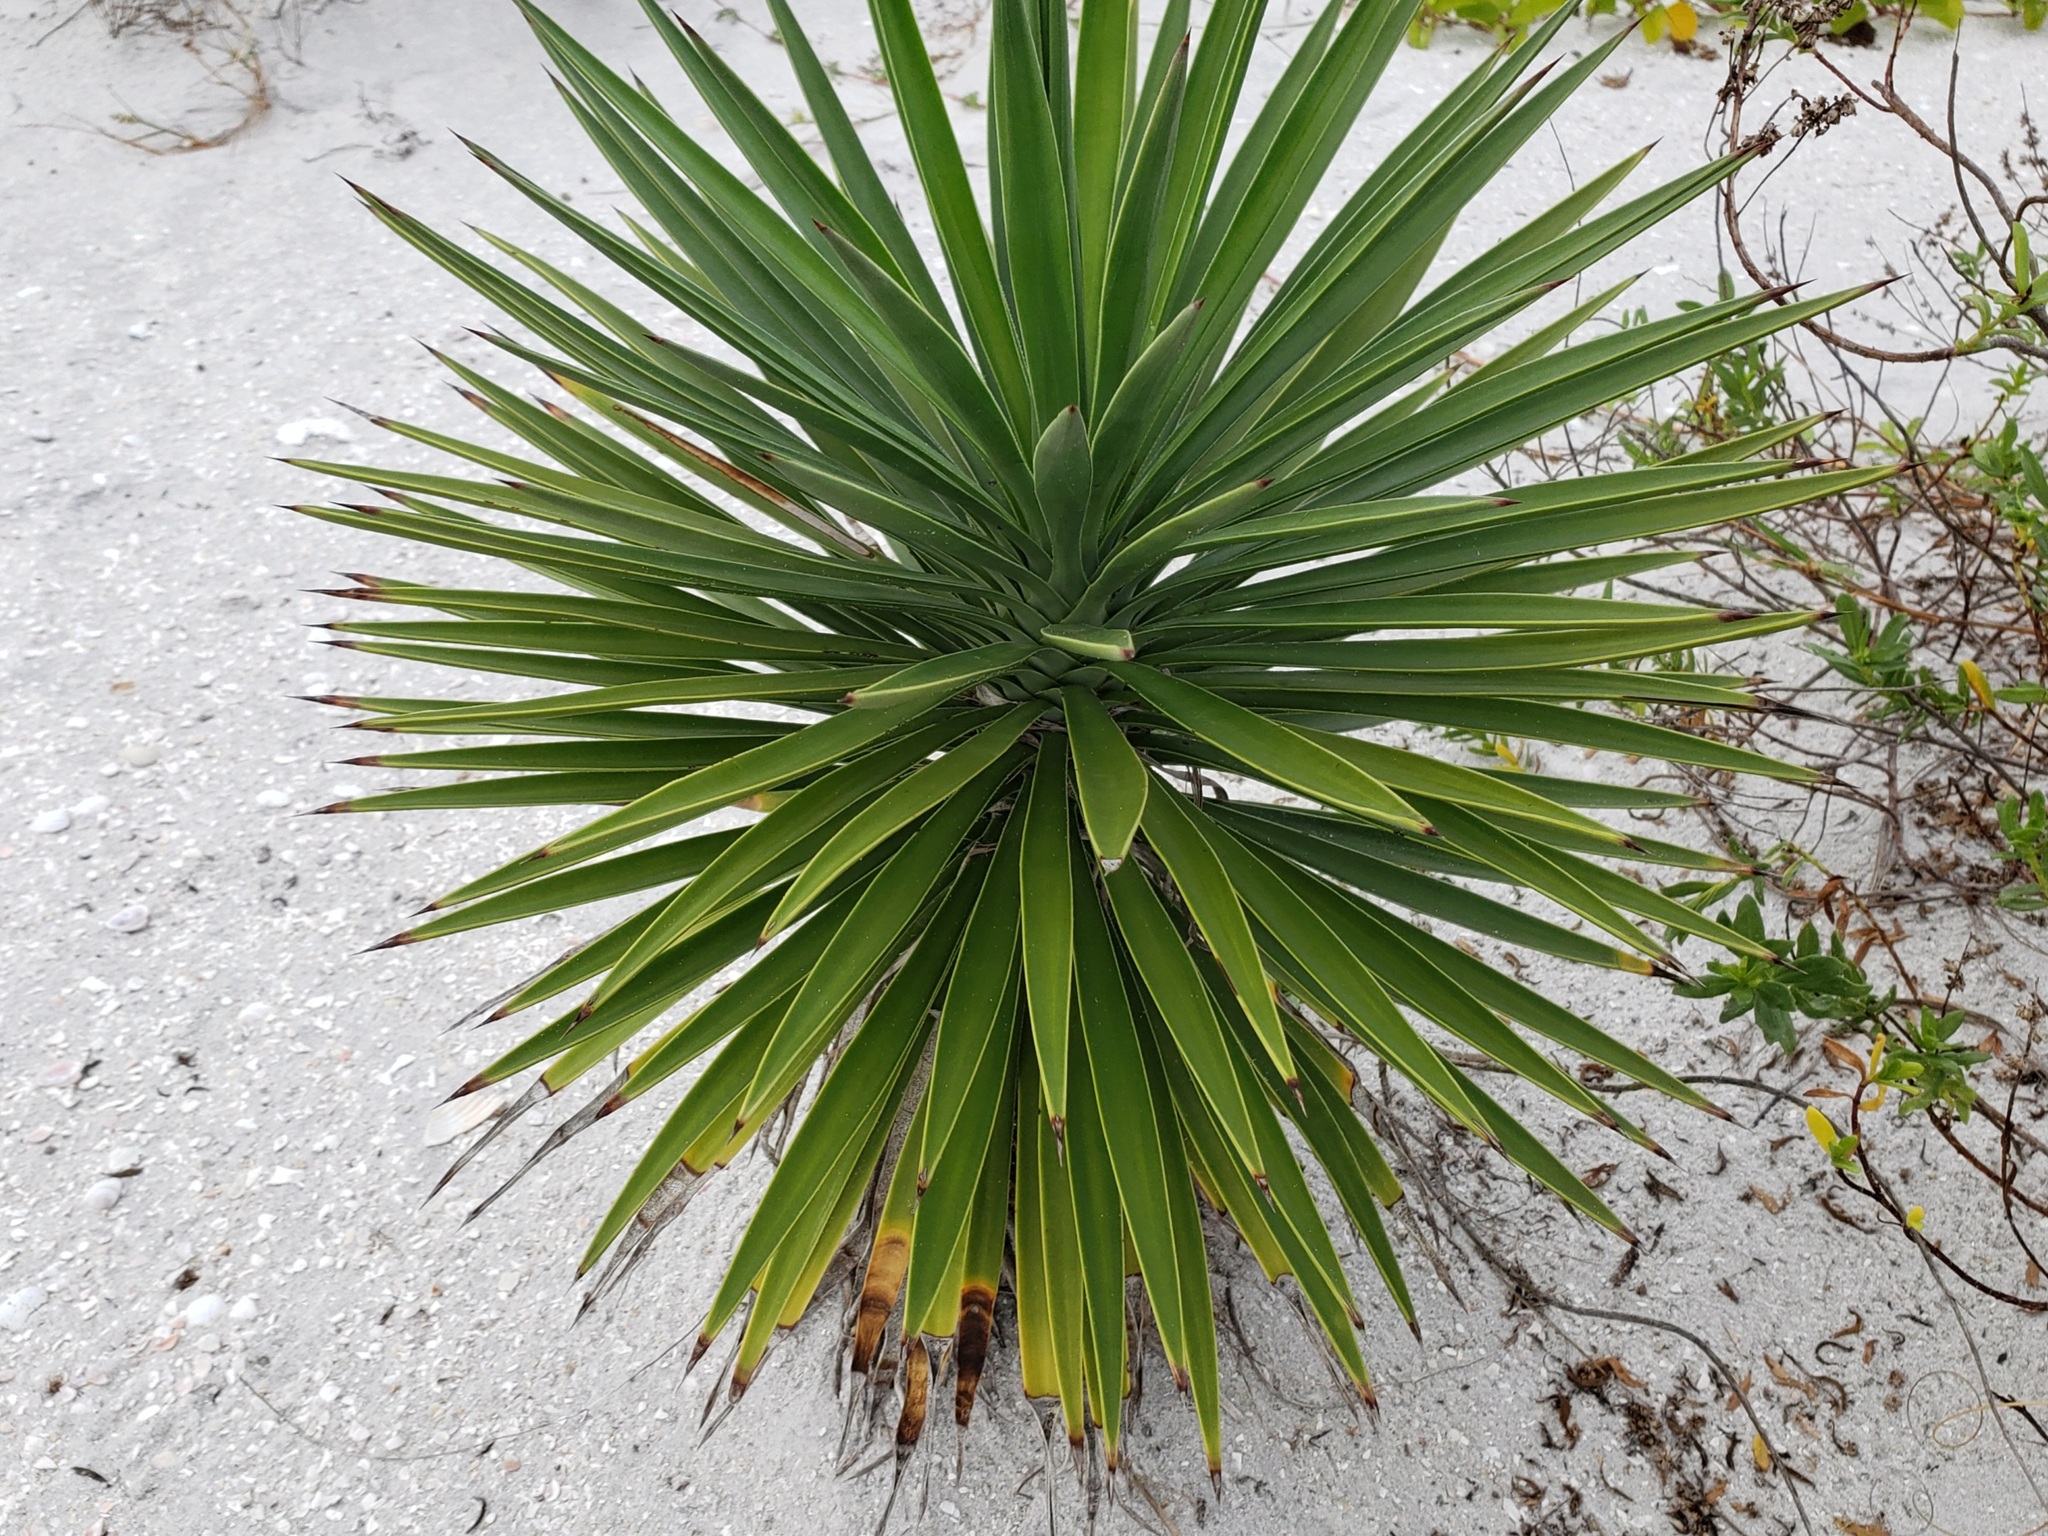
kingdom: Plantae
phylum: Tracheophyta
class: Liliopsida
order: Asparagales
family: Asparagaceae
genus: Yucca
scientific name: Yucca aloifolia
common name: Aloe yucca
